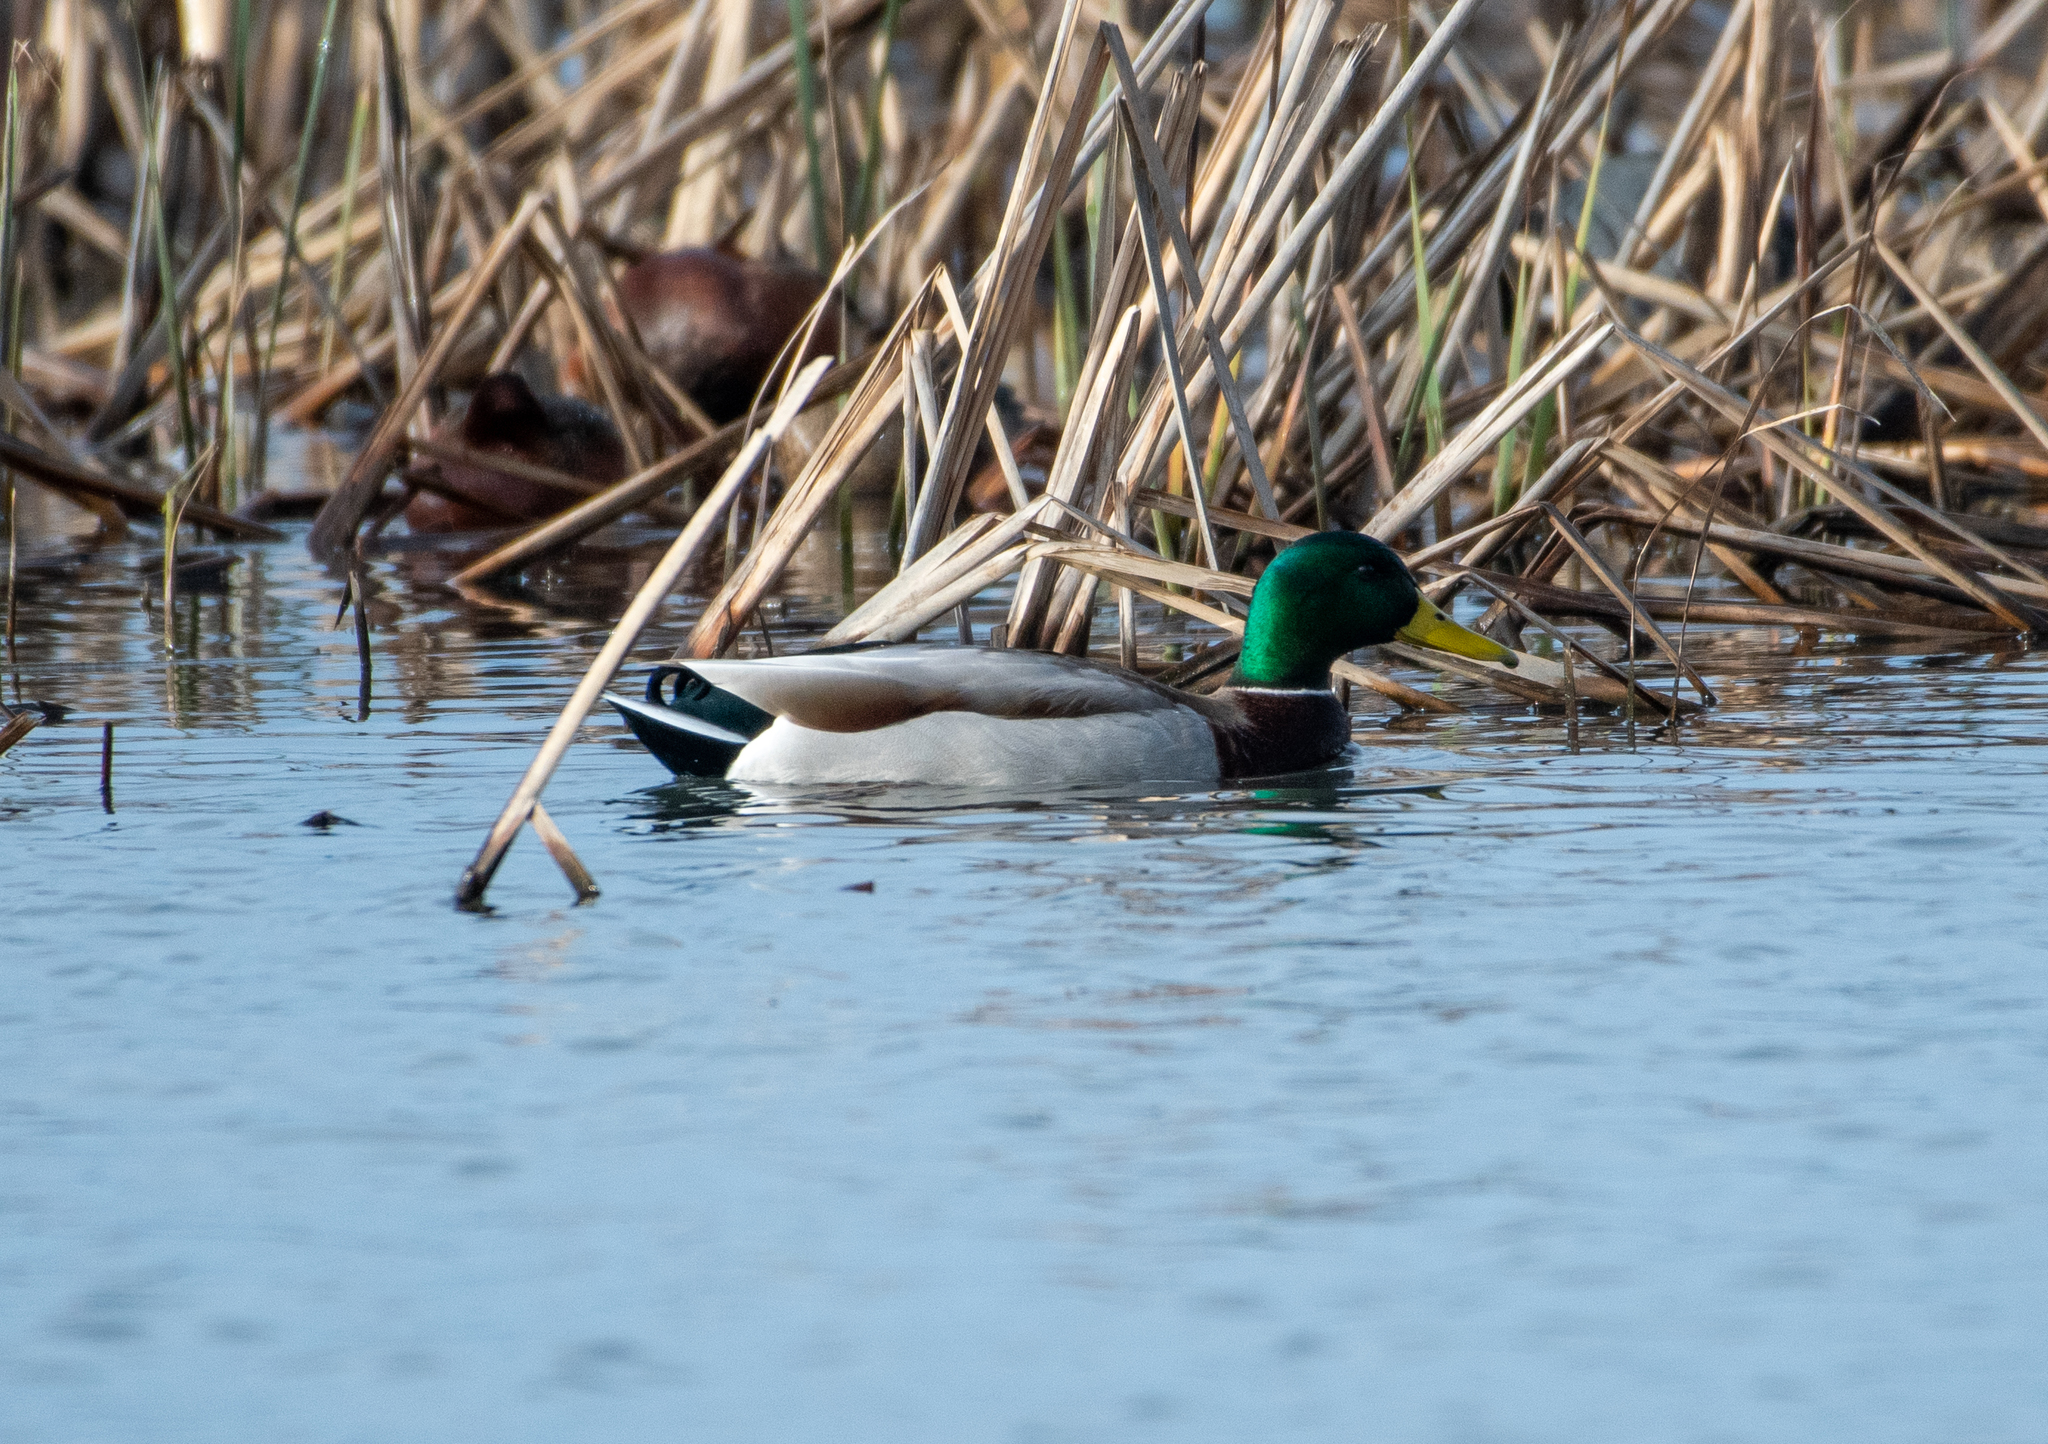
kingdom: Animalia
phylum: Chordata
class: Aves
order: Anseriformes
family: Anatidae
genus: Anas
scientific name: Anas platyrhynchos
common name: Mallard
